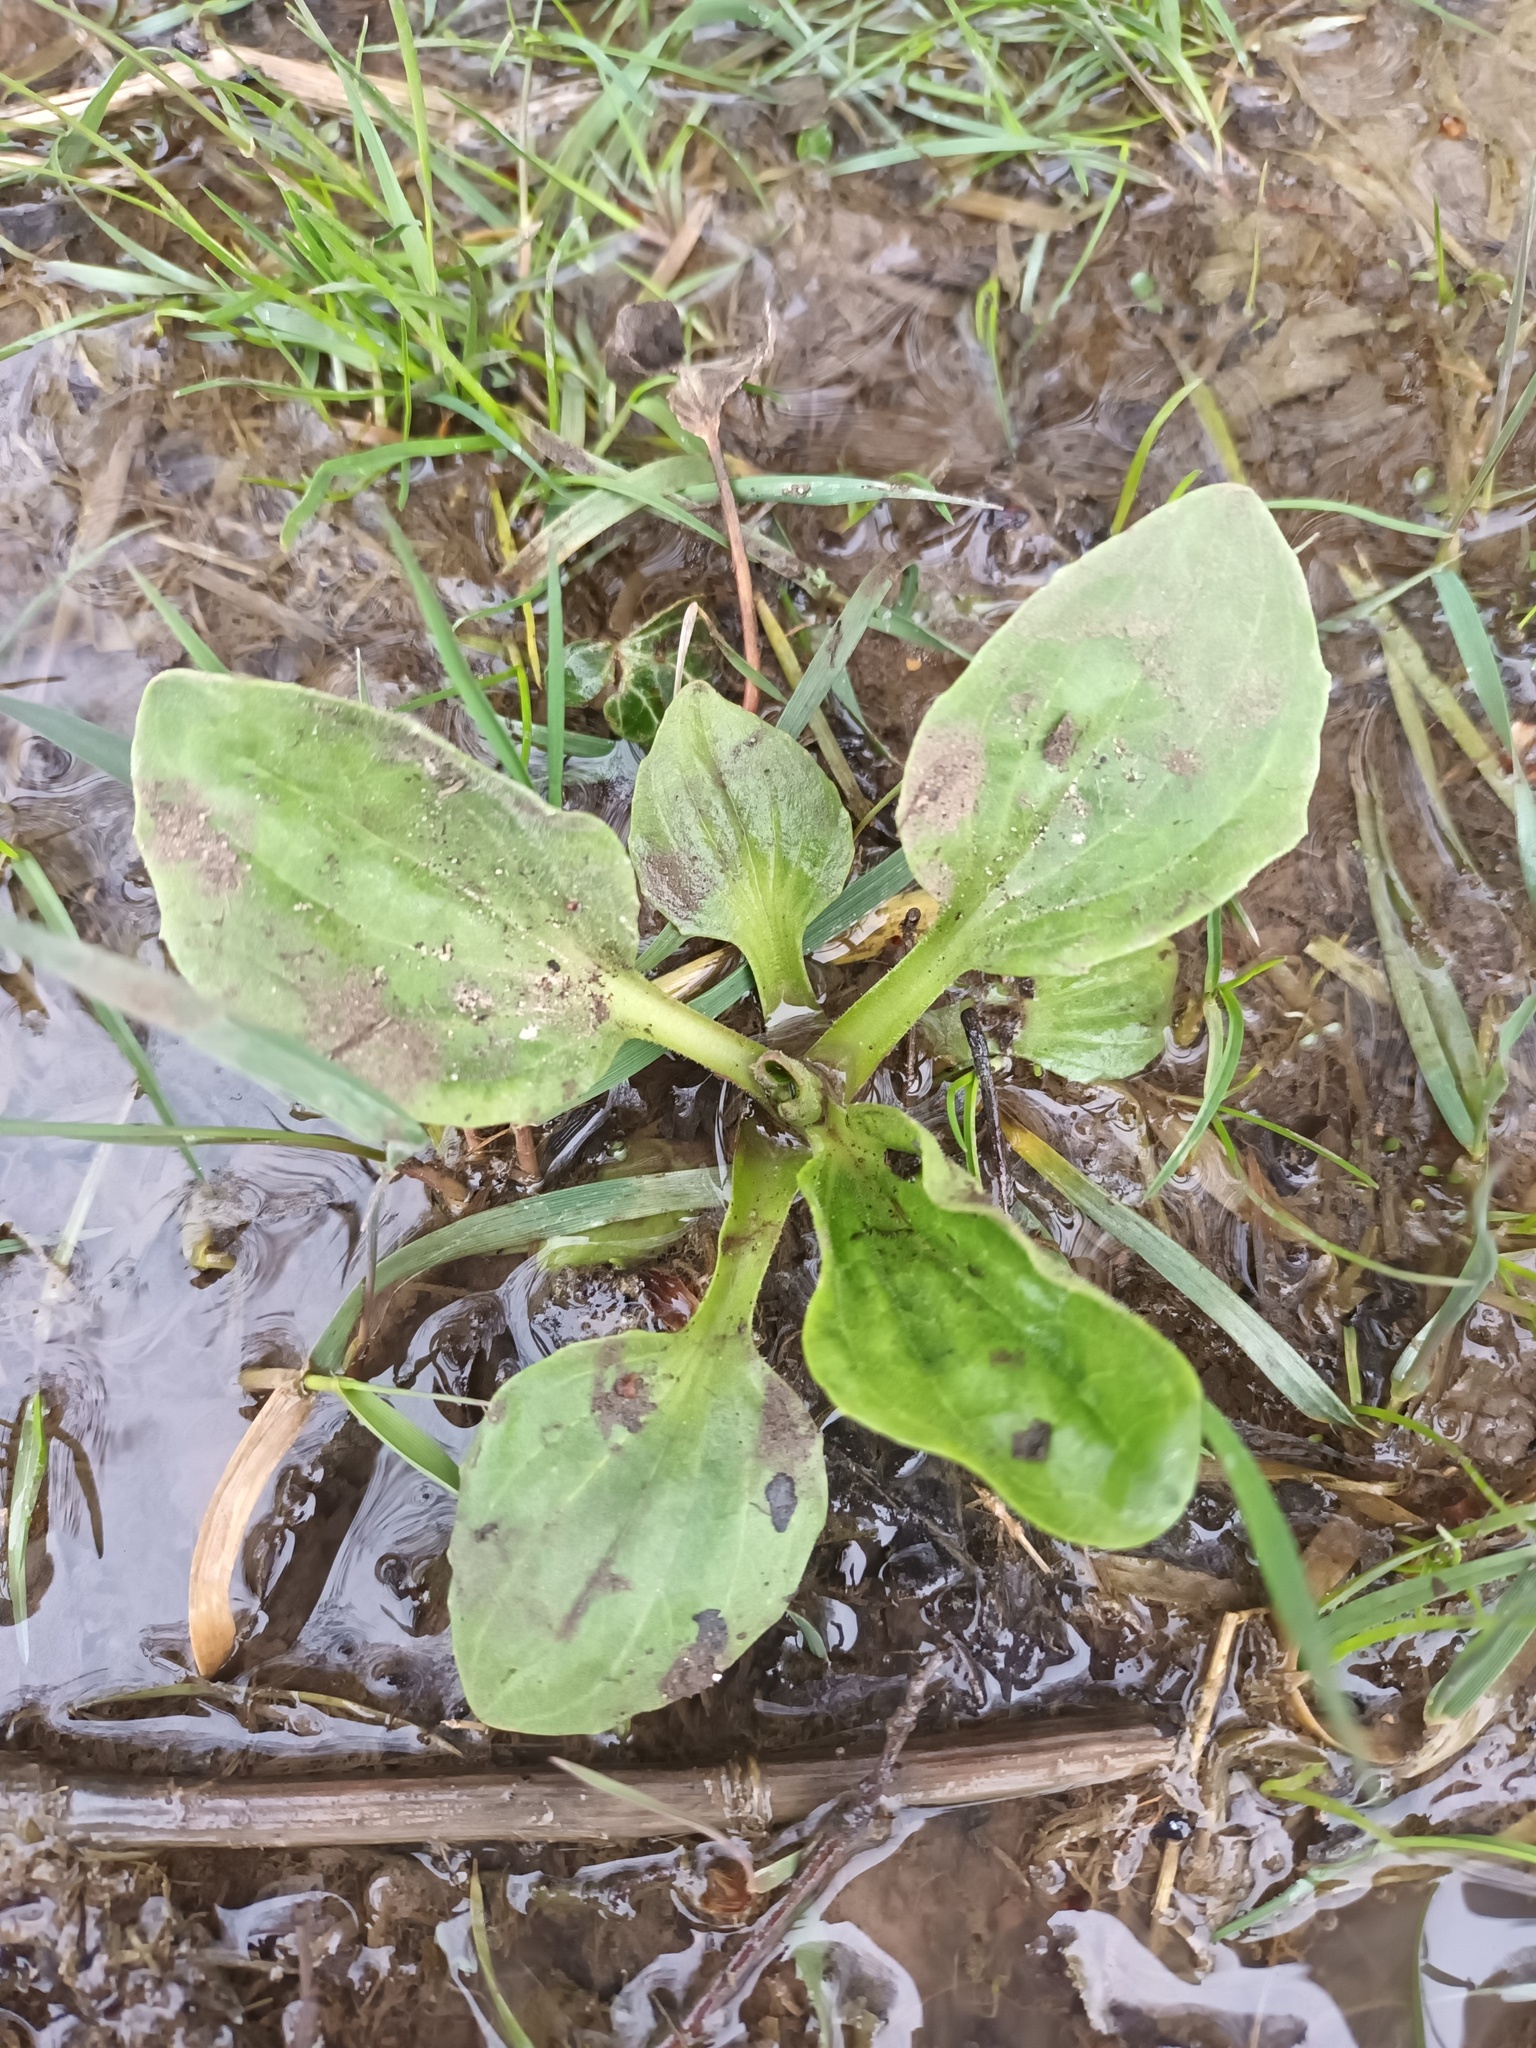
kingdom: Plantae
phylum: Tracheophyta
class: Magnoliopsida
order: Lamiales
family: Plantaginaceae
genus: Plantago
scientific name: Plantago major
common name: Common plantain
